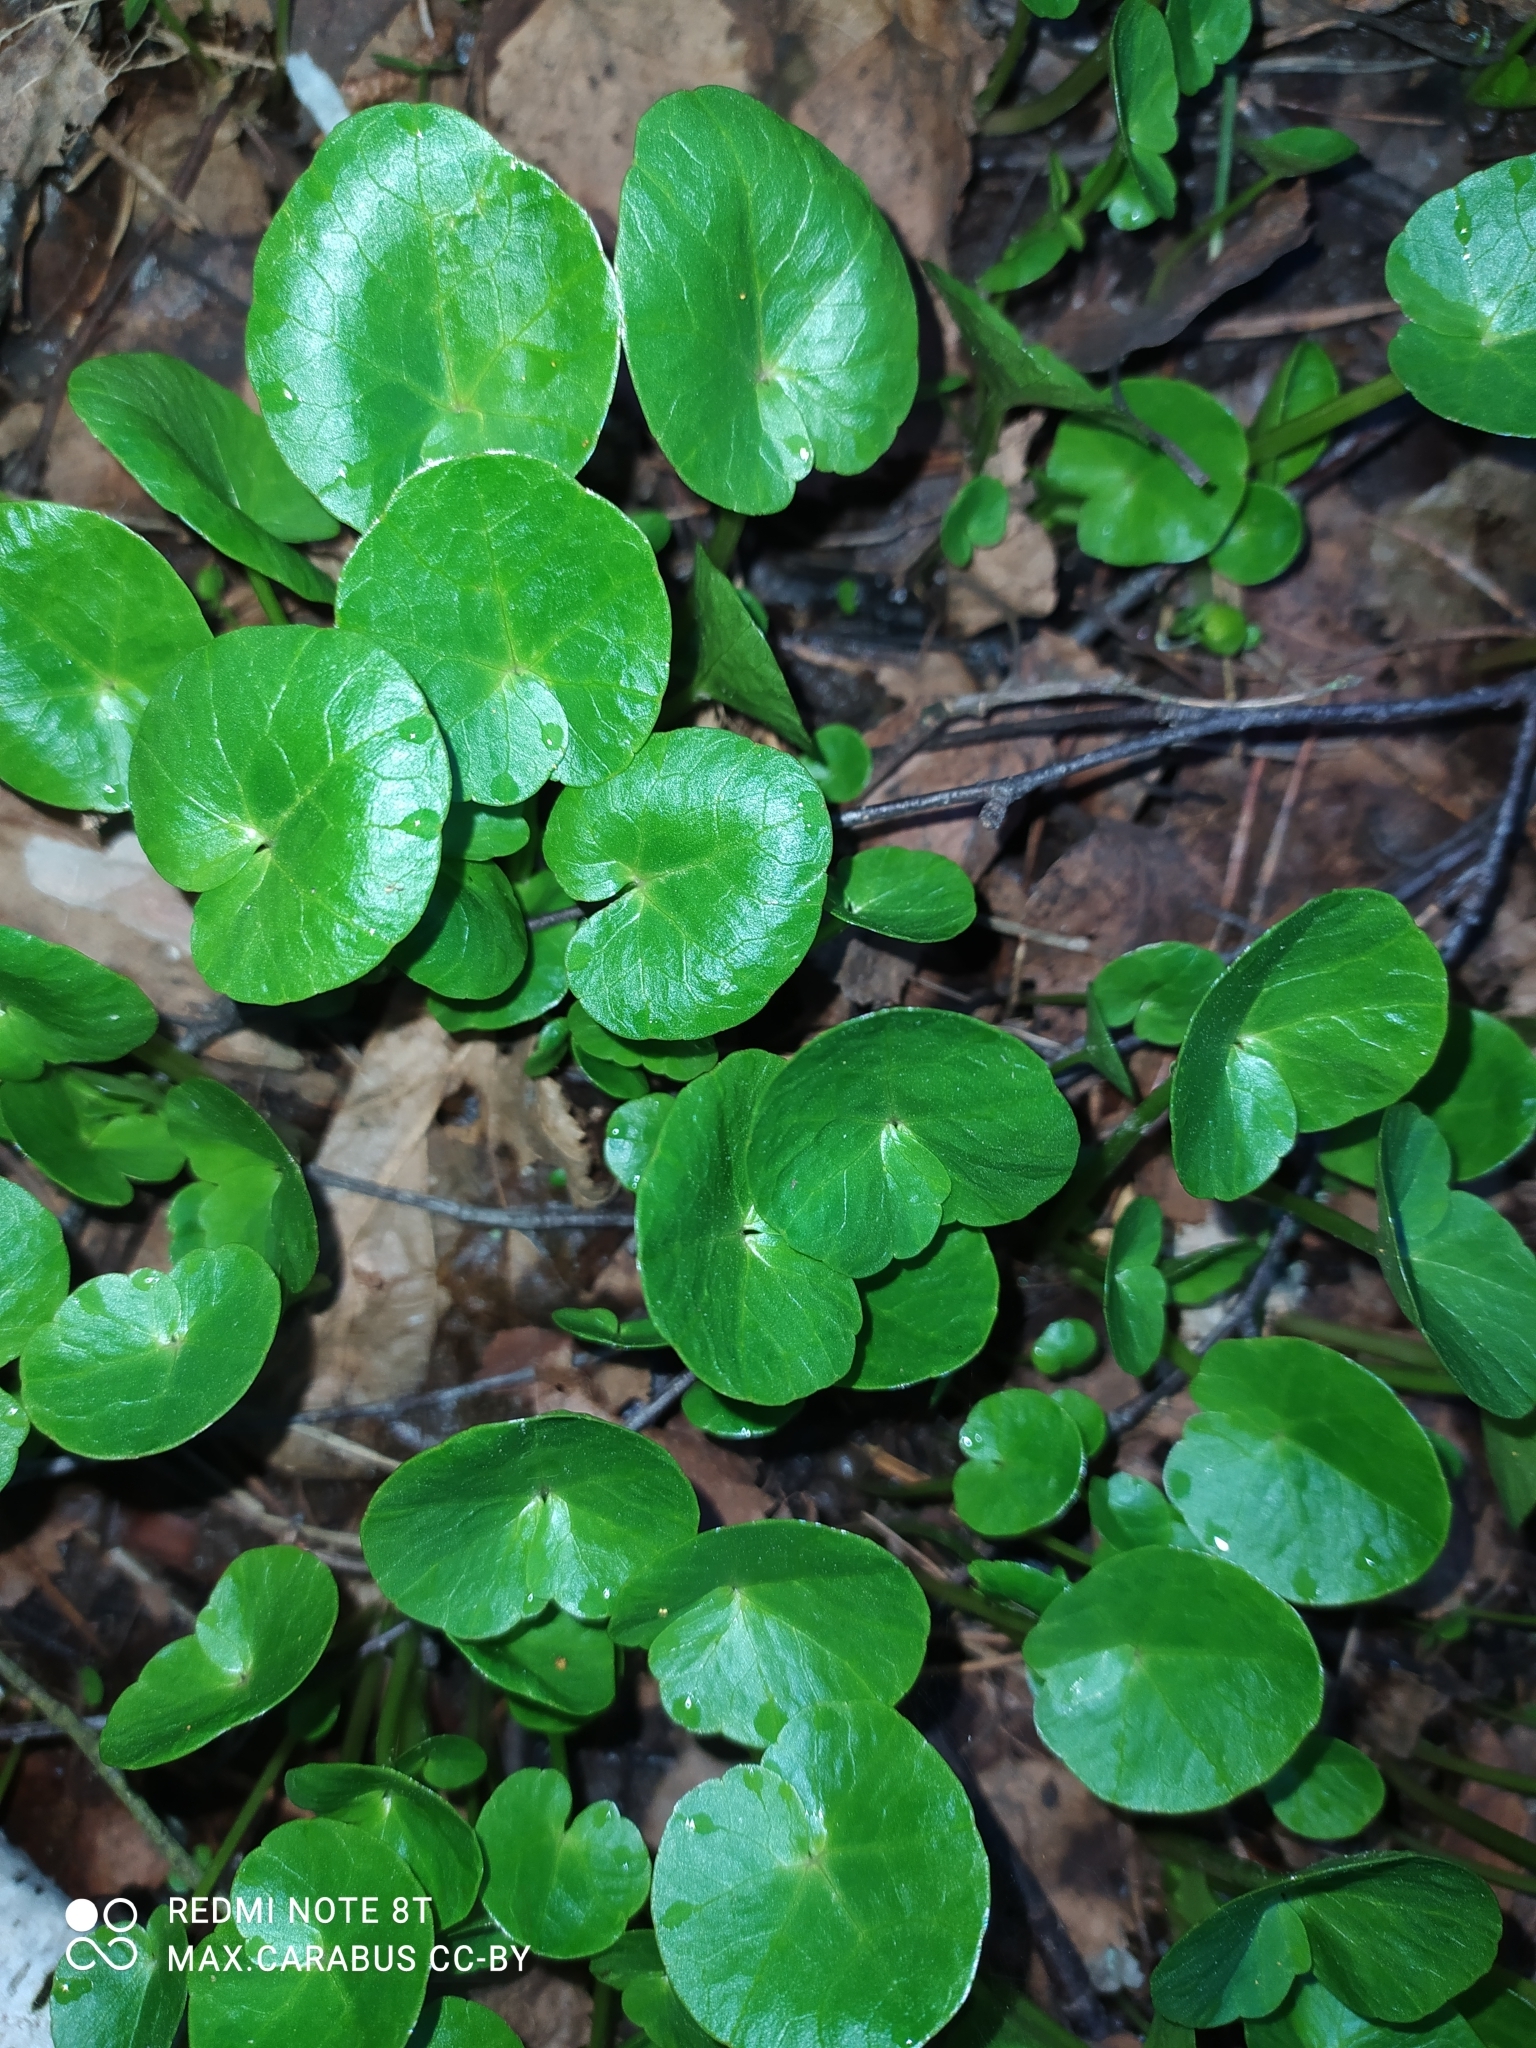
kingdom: Plantae
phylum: Tracheophyta
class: Magnoliopsida
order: Ranunculales
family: Ranunculaceae
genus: Ficaria
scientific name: Ficaria verna
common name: Lesser celandine
